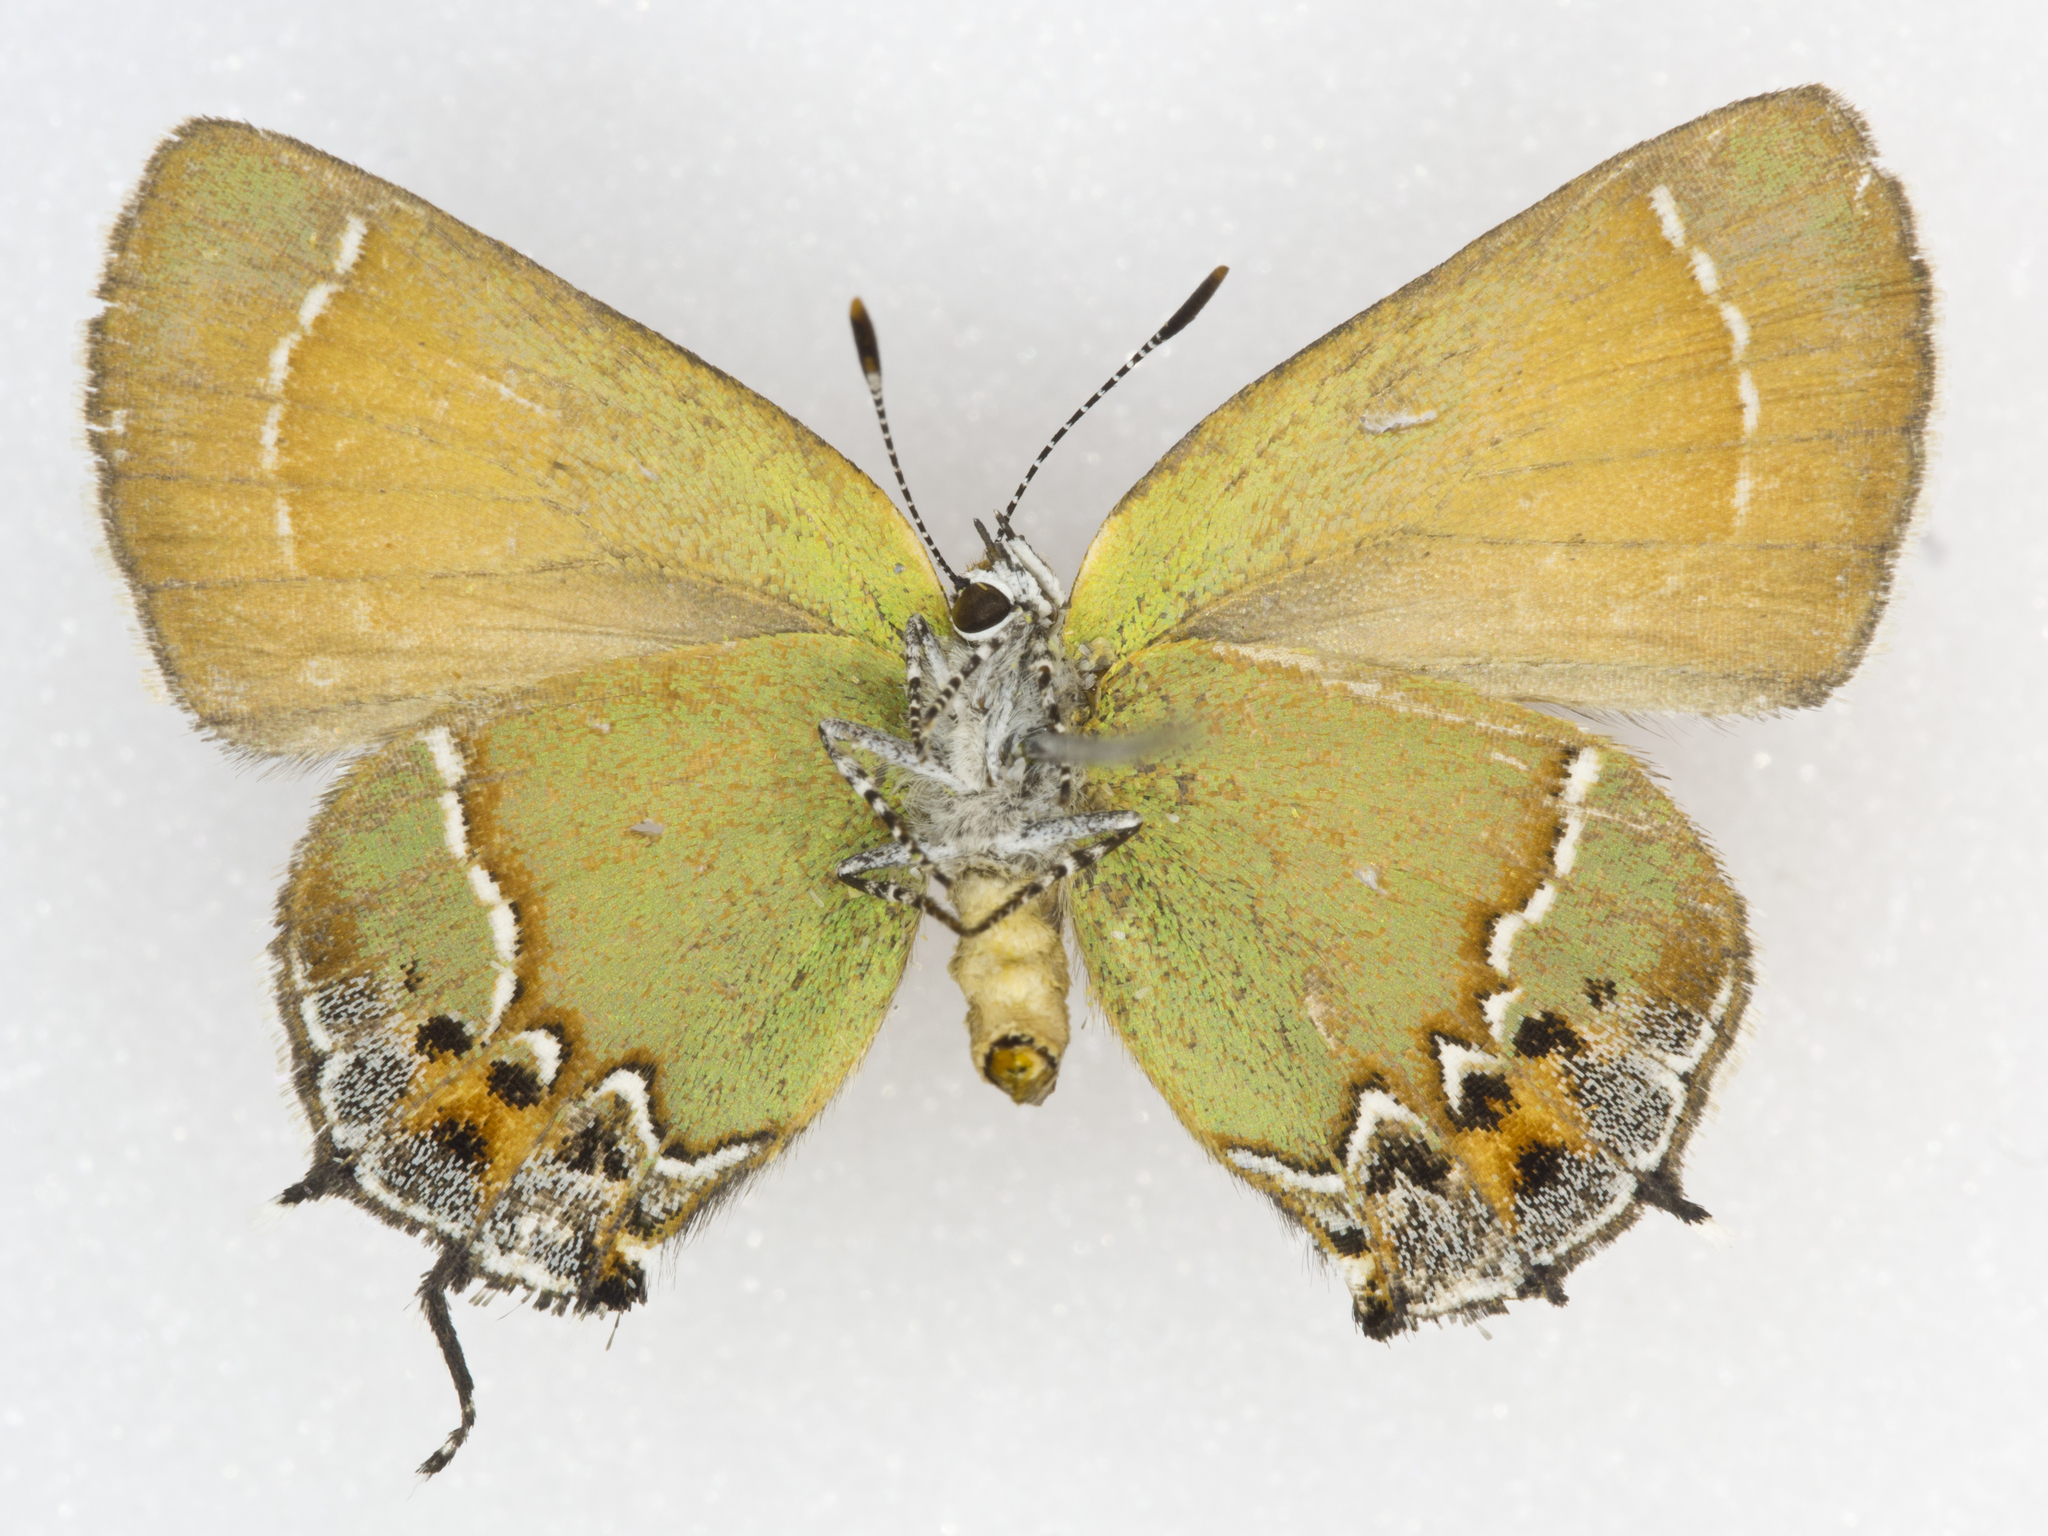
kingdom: Animalia
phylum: Arthropoda
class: Insecta
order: Lepidoptera
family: Lycaenidae
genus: Mitoura
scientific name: Mitoura siva
